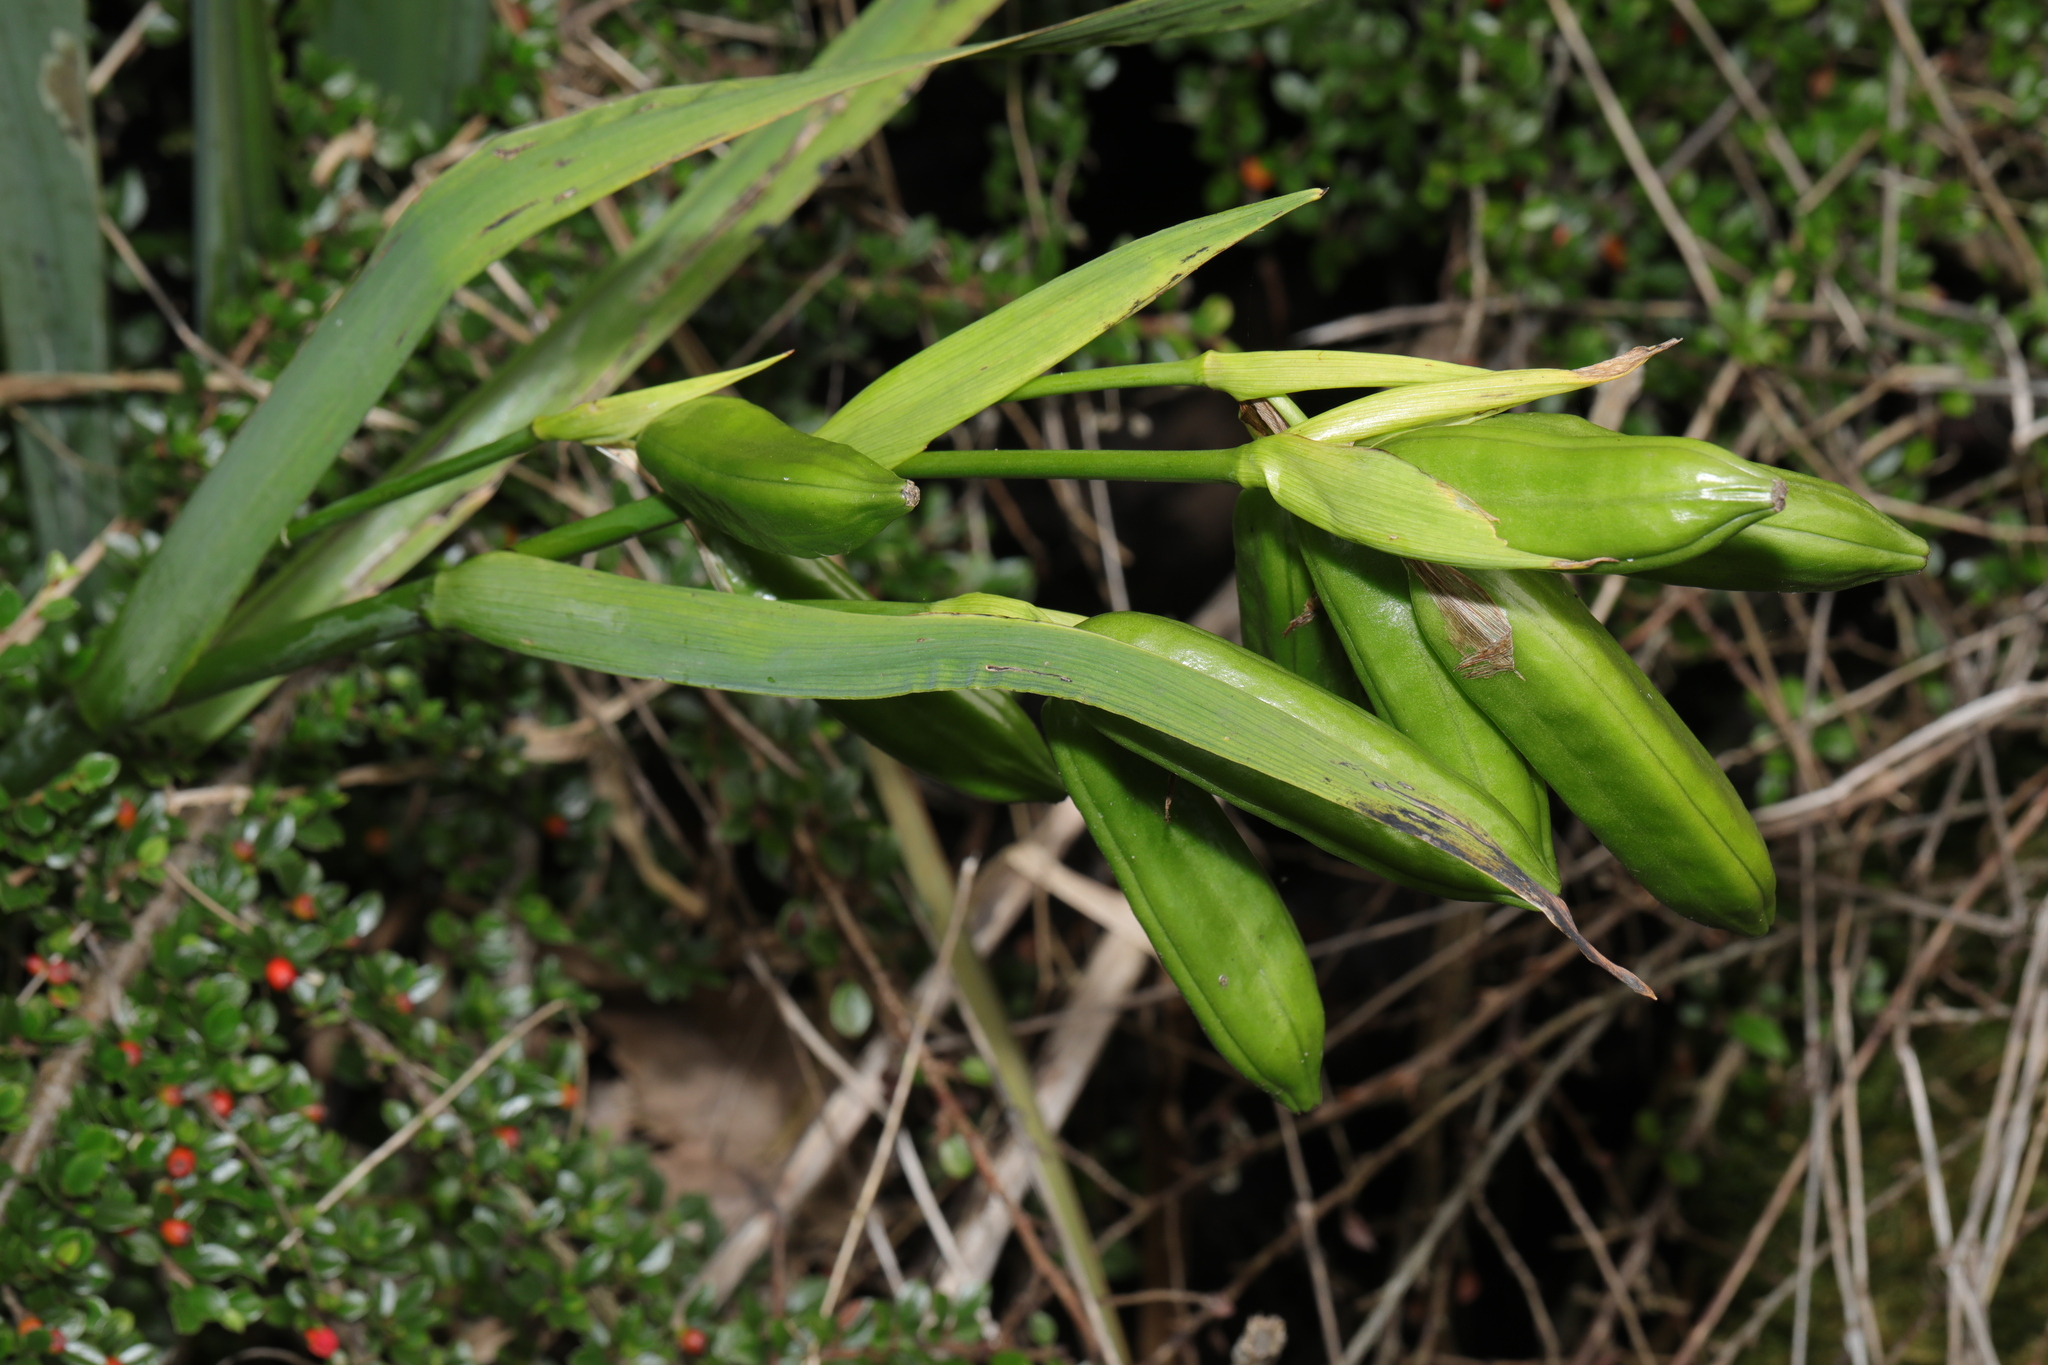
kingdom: Plantae
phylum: Tracheophyta
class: Liliopsida
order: Asparagales
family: Iridaceae
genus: Iris
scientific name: Iris pseudacorus
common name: Yellow flag
